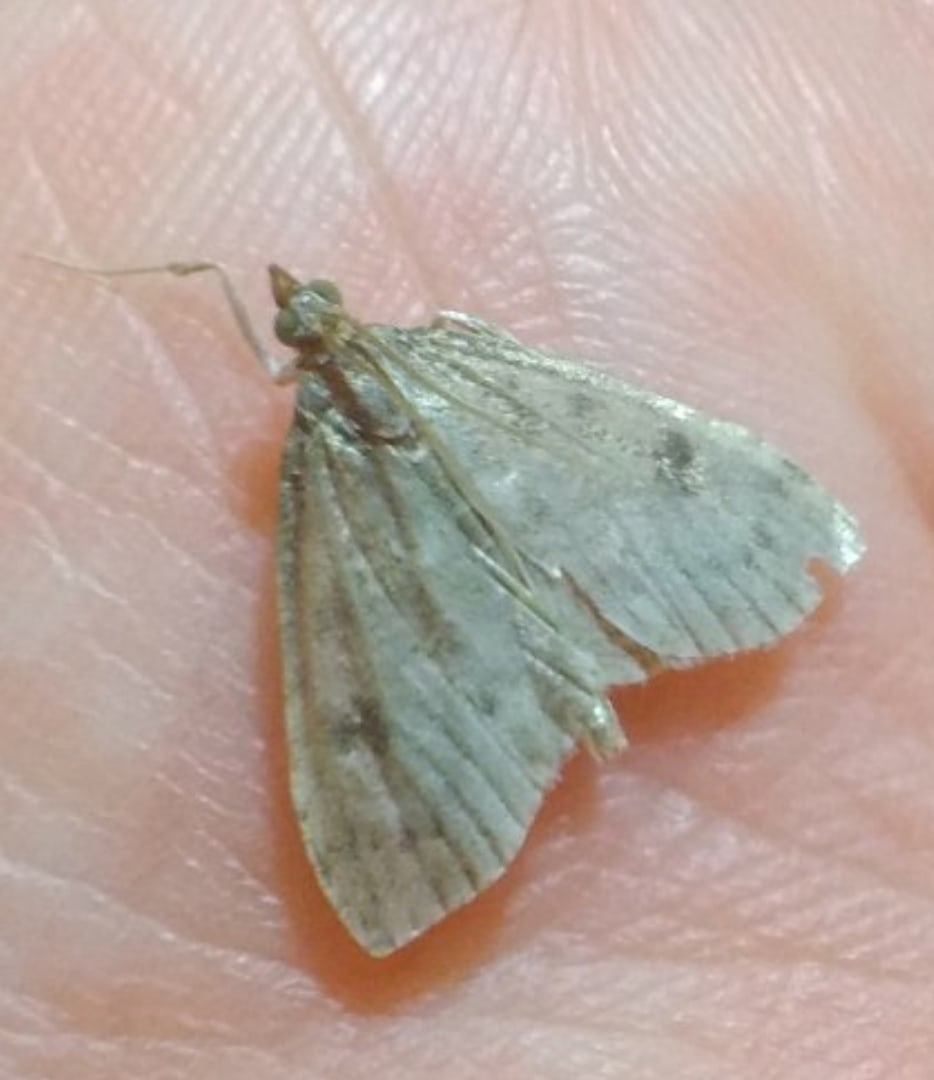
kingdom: Animalia
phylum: Arthropoda
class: Insecta
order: Lepidoptera
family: Crambidae
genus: Udea
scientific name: Udea prunalis
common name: Dusky pearl
